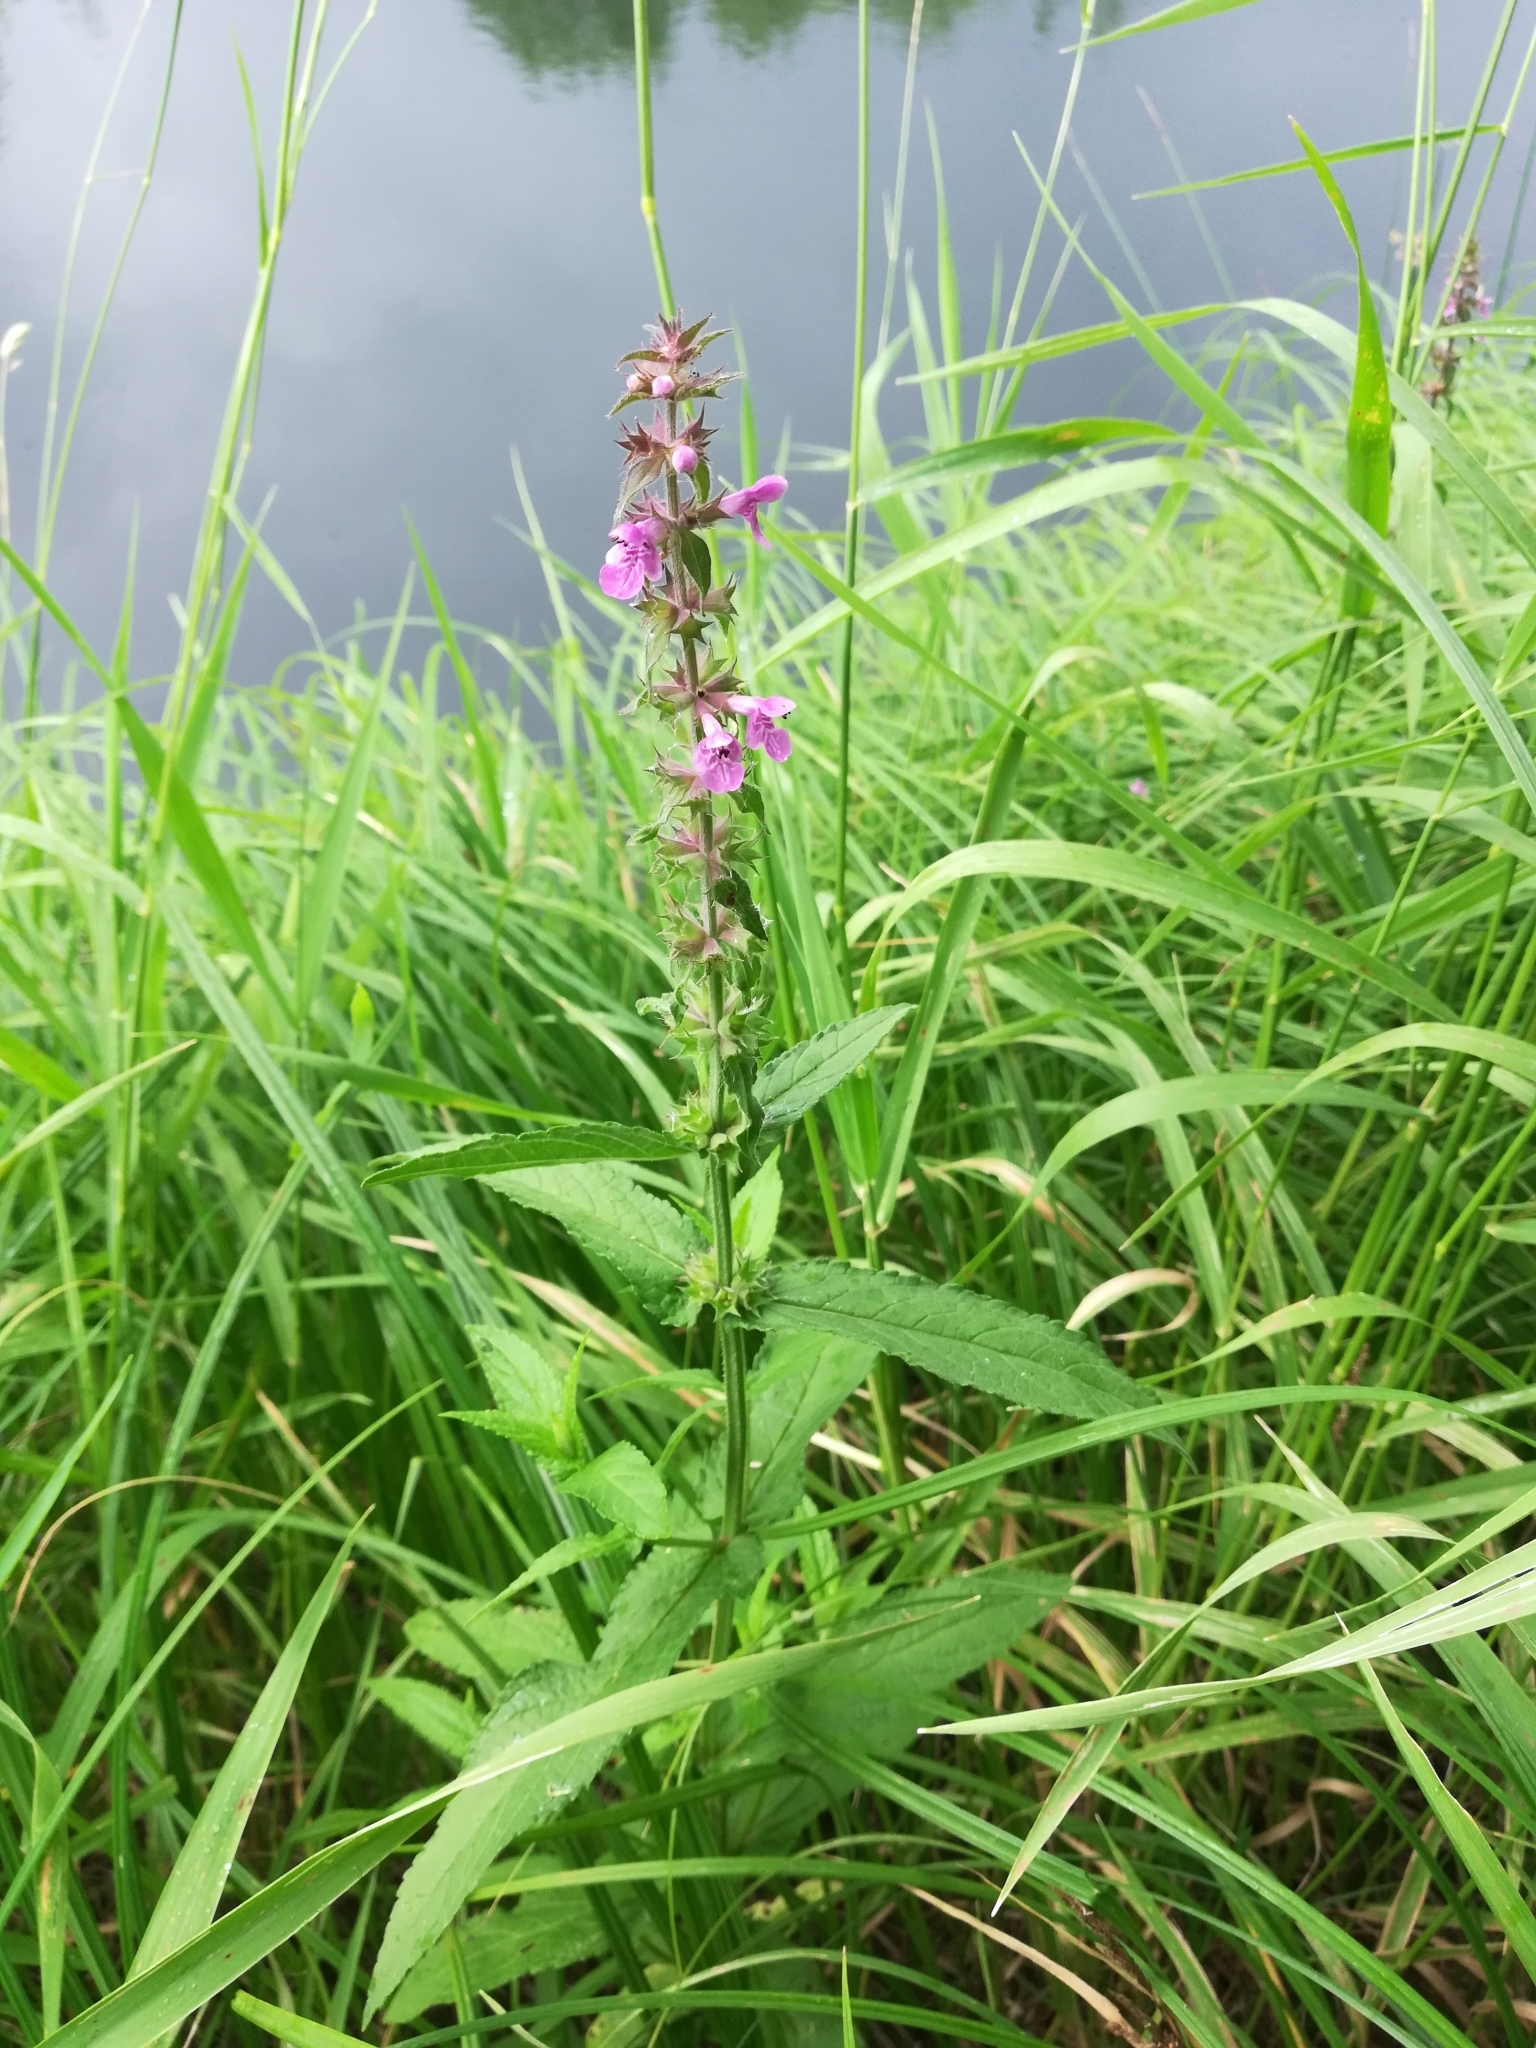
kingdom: Plantae
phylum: Tracheophyta
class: Magnoliopsida
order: Lamiales
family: Lamiaceae
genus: Stachys
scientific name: Stachys palustris
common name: Marsh woundwort
